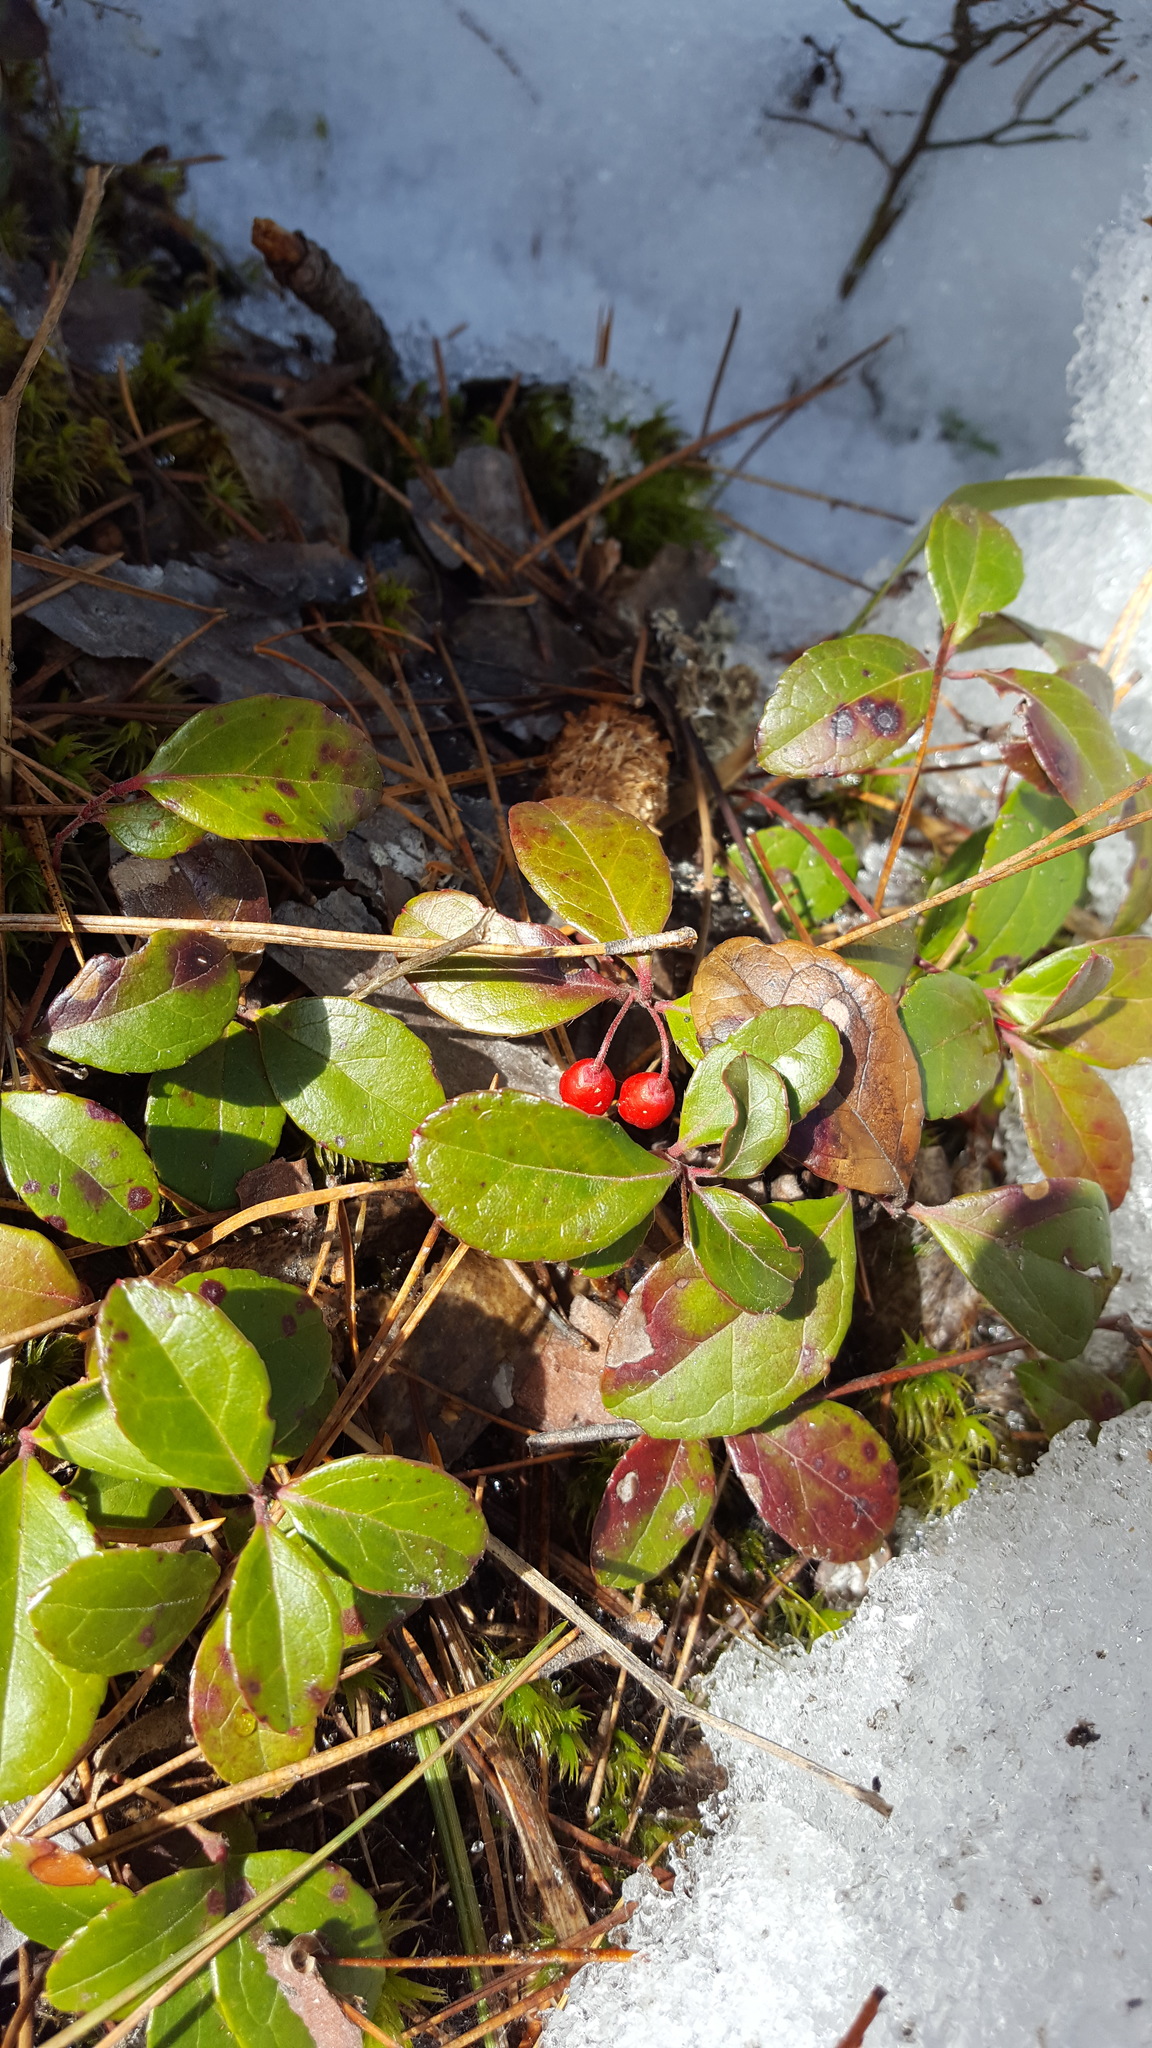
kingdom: Plantae
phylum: Tracheophyta
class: Magnoliopsida
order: Ericales
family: Ericaceae
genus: Gaultheria
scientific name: Gaultheria procumbens
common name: Checkerberry
